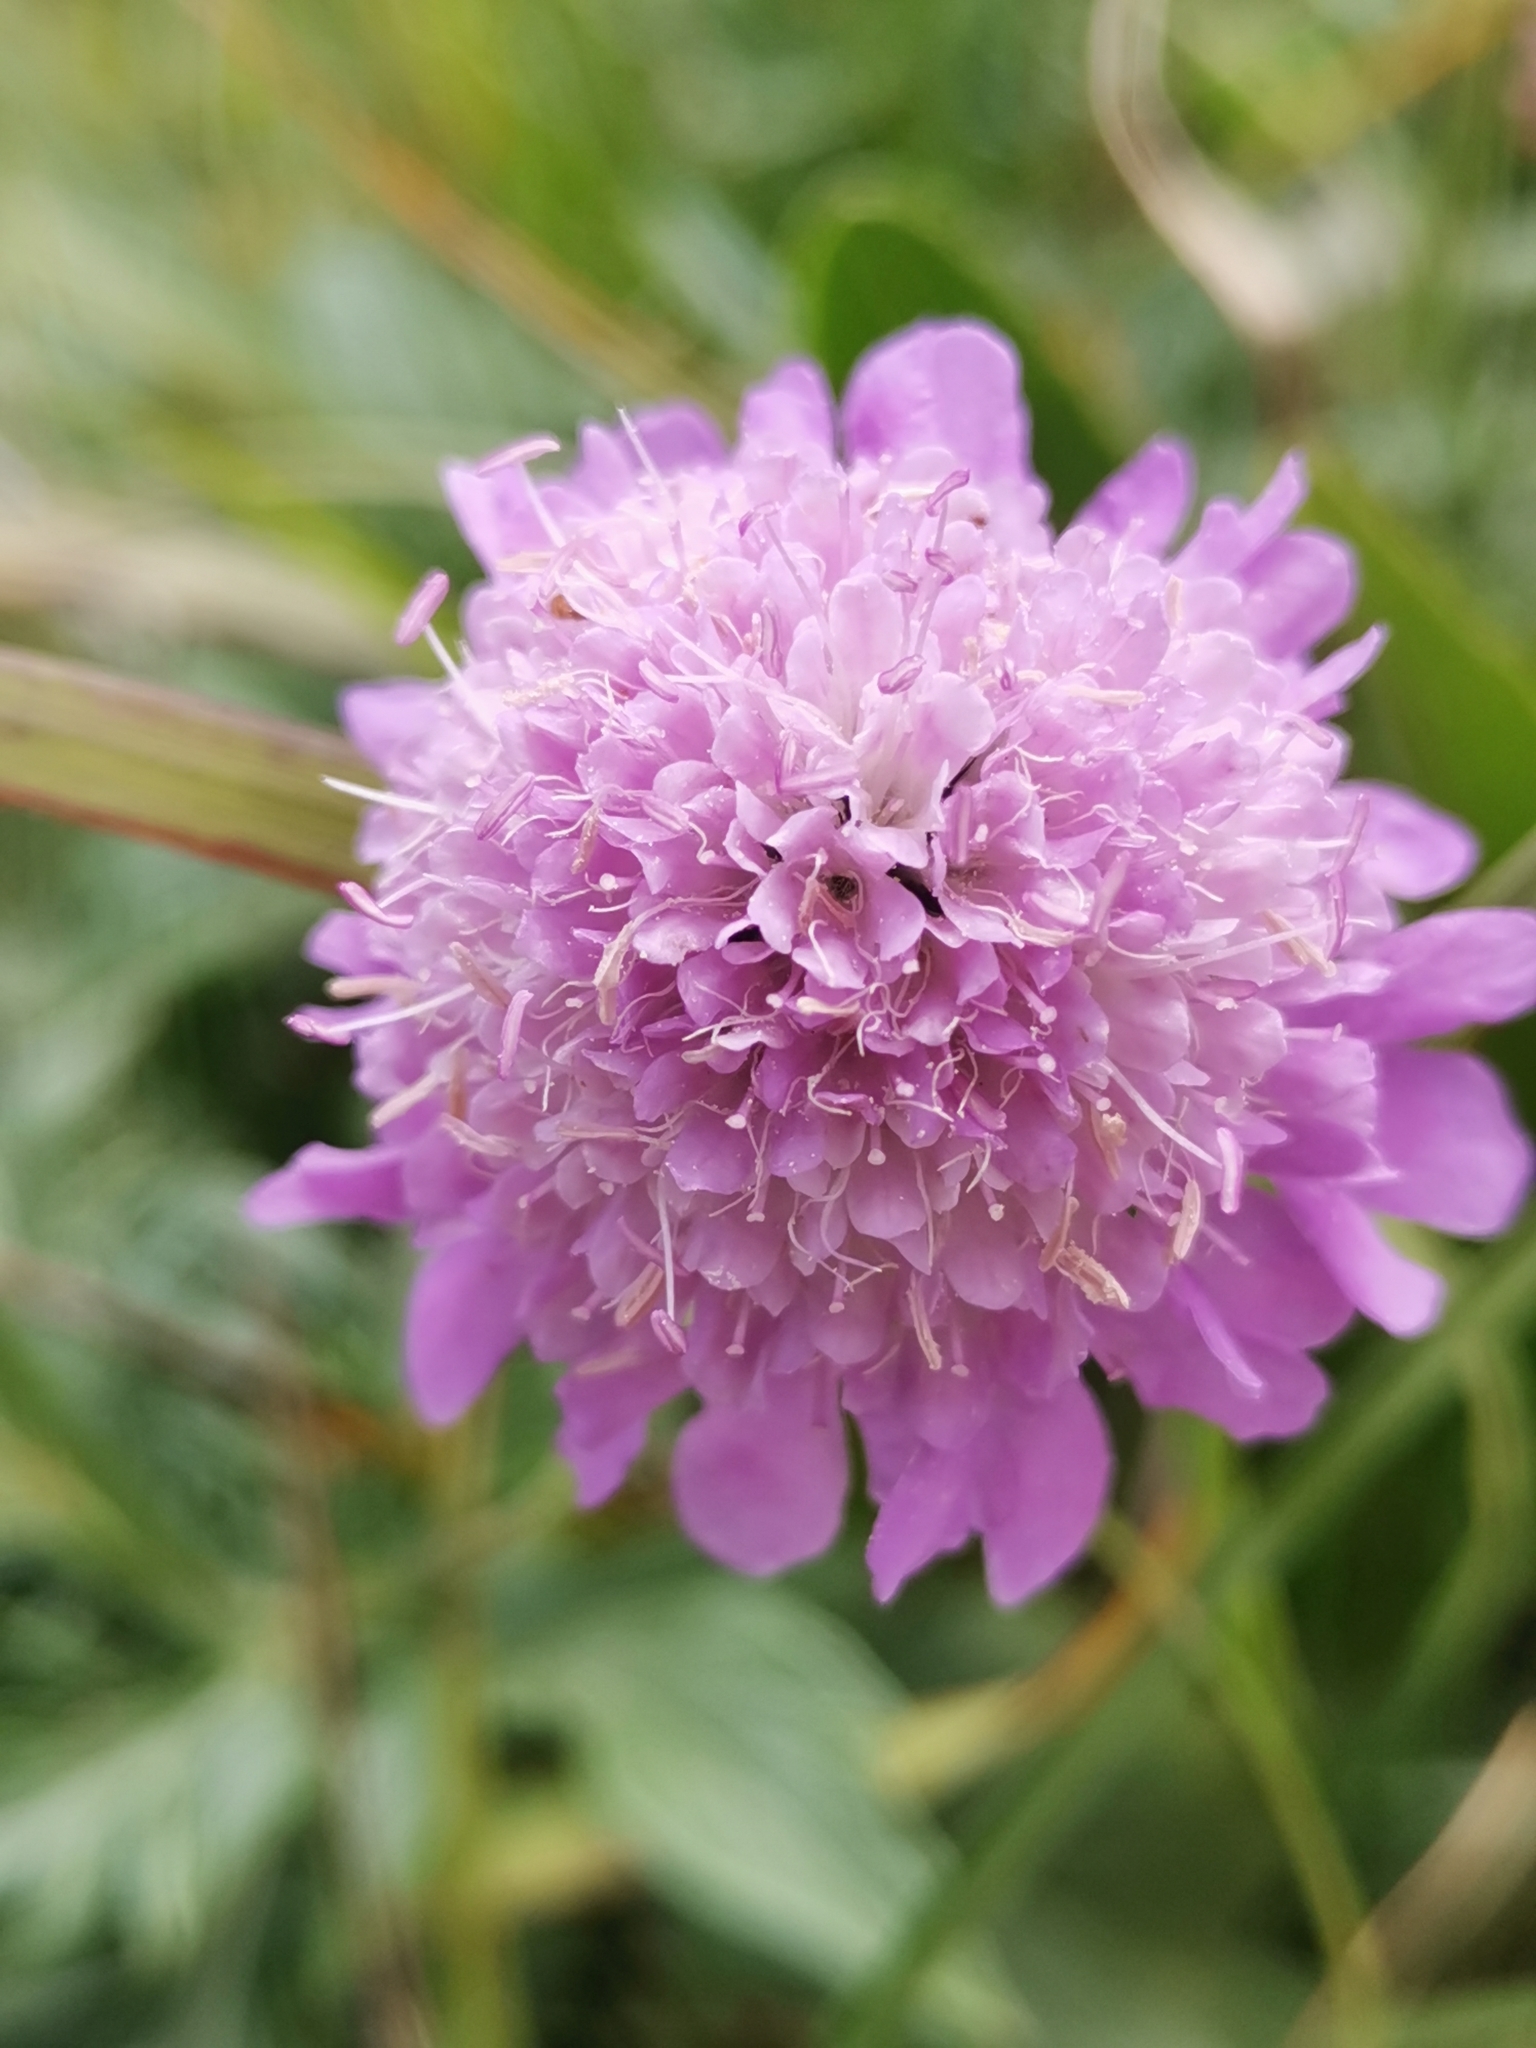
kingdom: Plantae
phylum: Tracheophyta
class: Magnoliopsida
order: Dipsacales
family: Caprifoliaceae
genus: Scabiosa
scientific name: Scabiosa lucida
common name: Shining scabious
